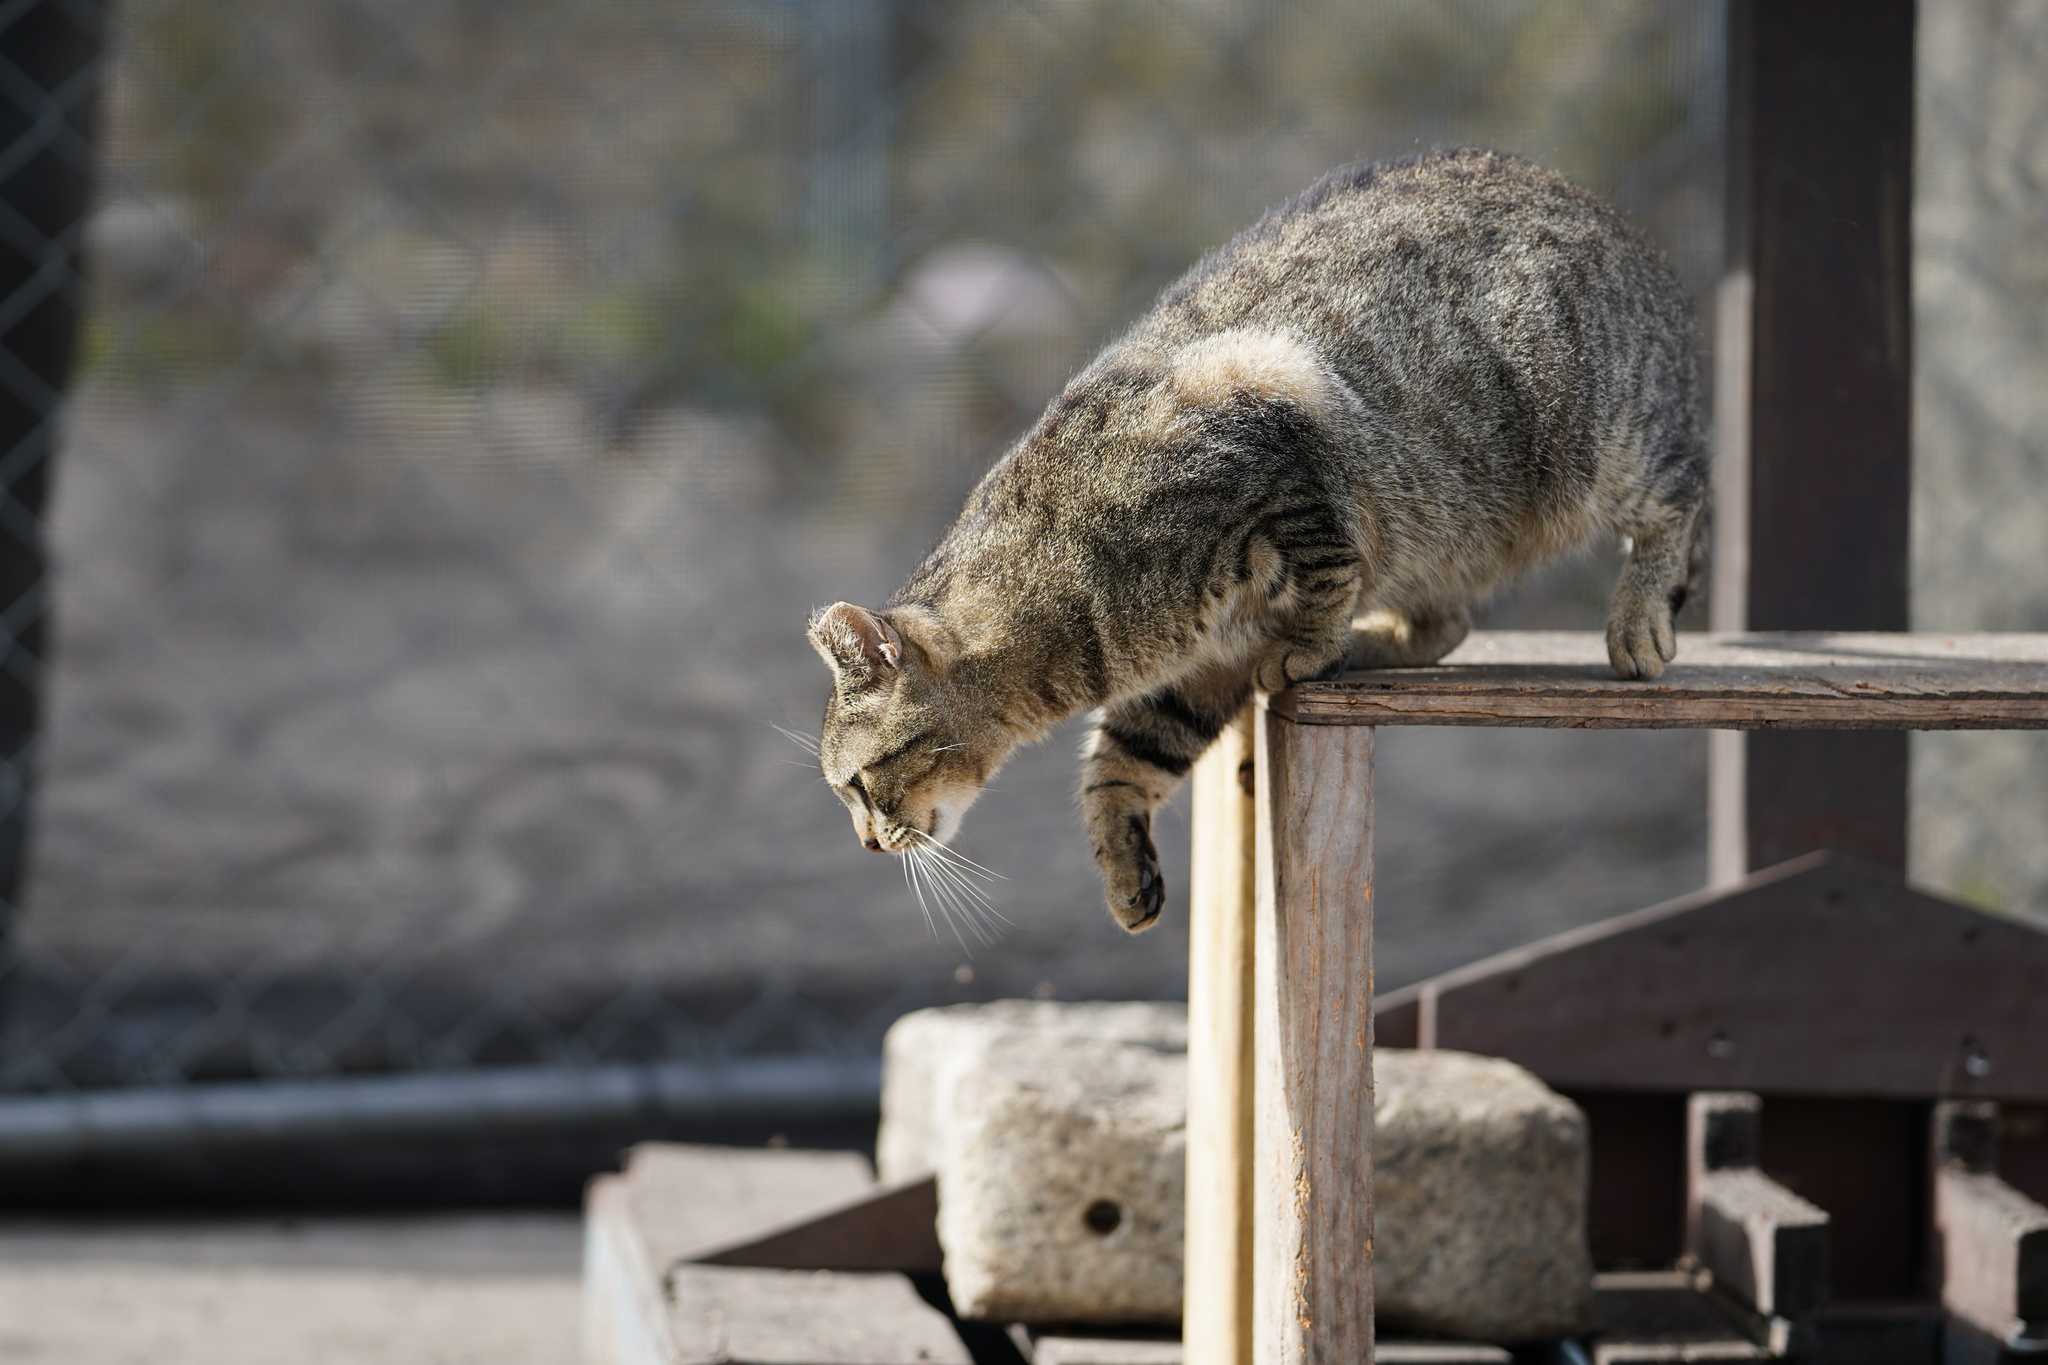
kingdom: Animalia
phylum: Chordata
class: Mammalia
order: Carnivora
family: Felidae
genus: Felis
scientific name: Felis catus
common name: Domestic cat
